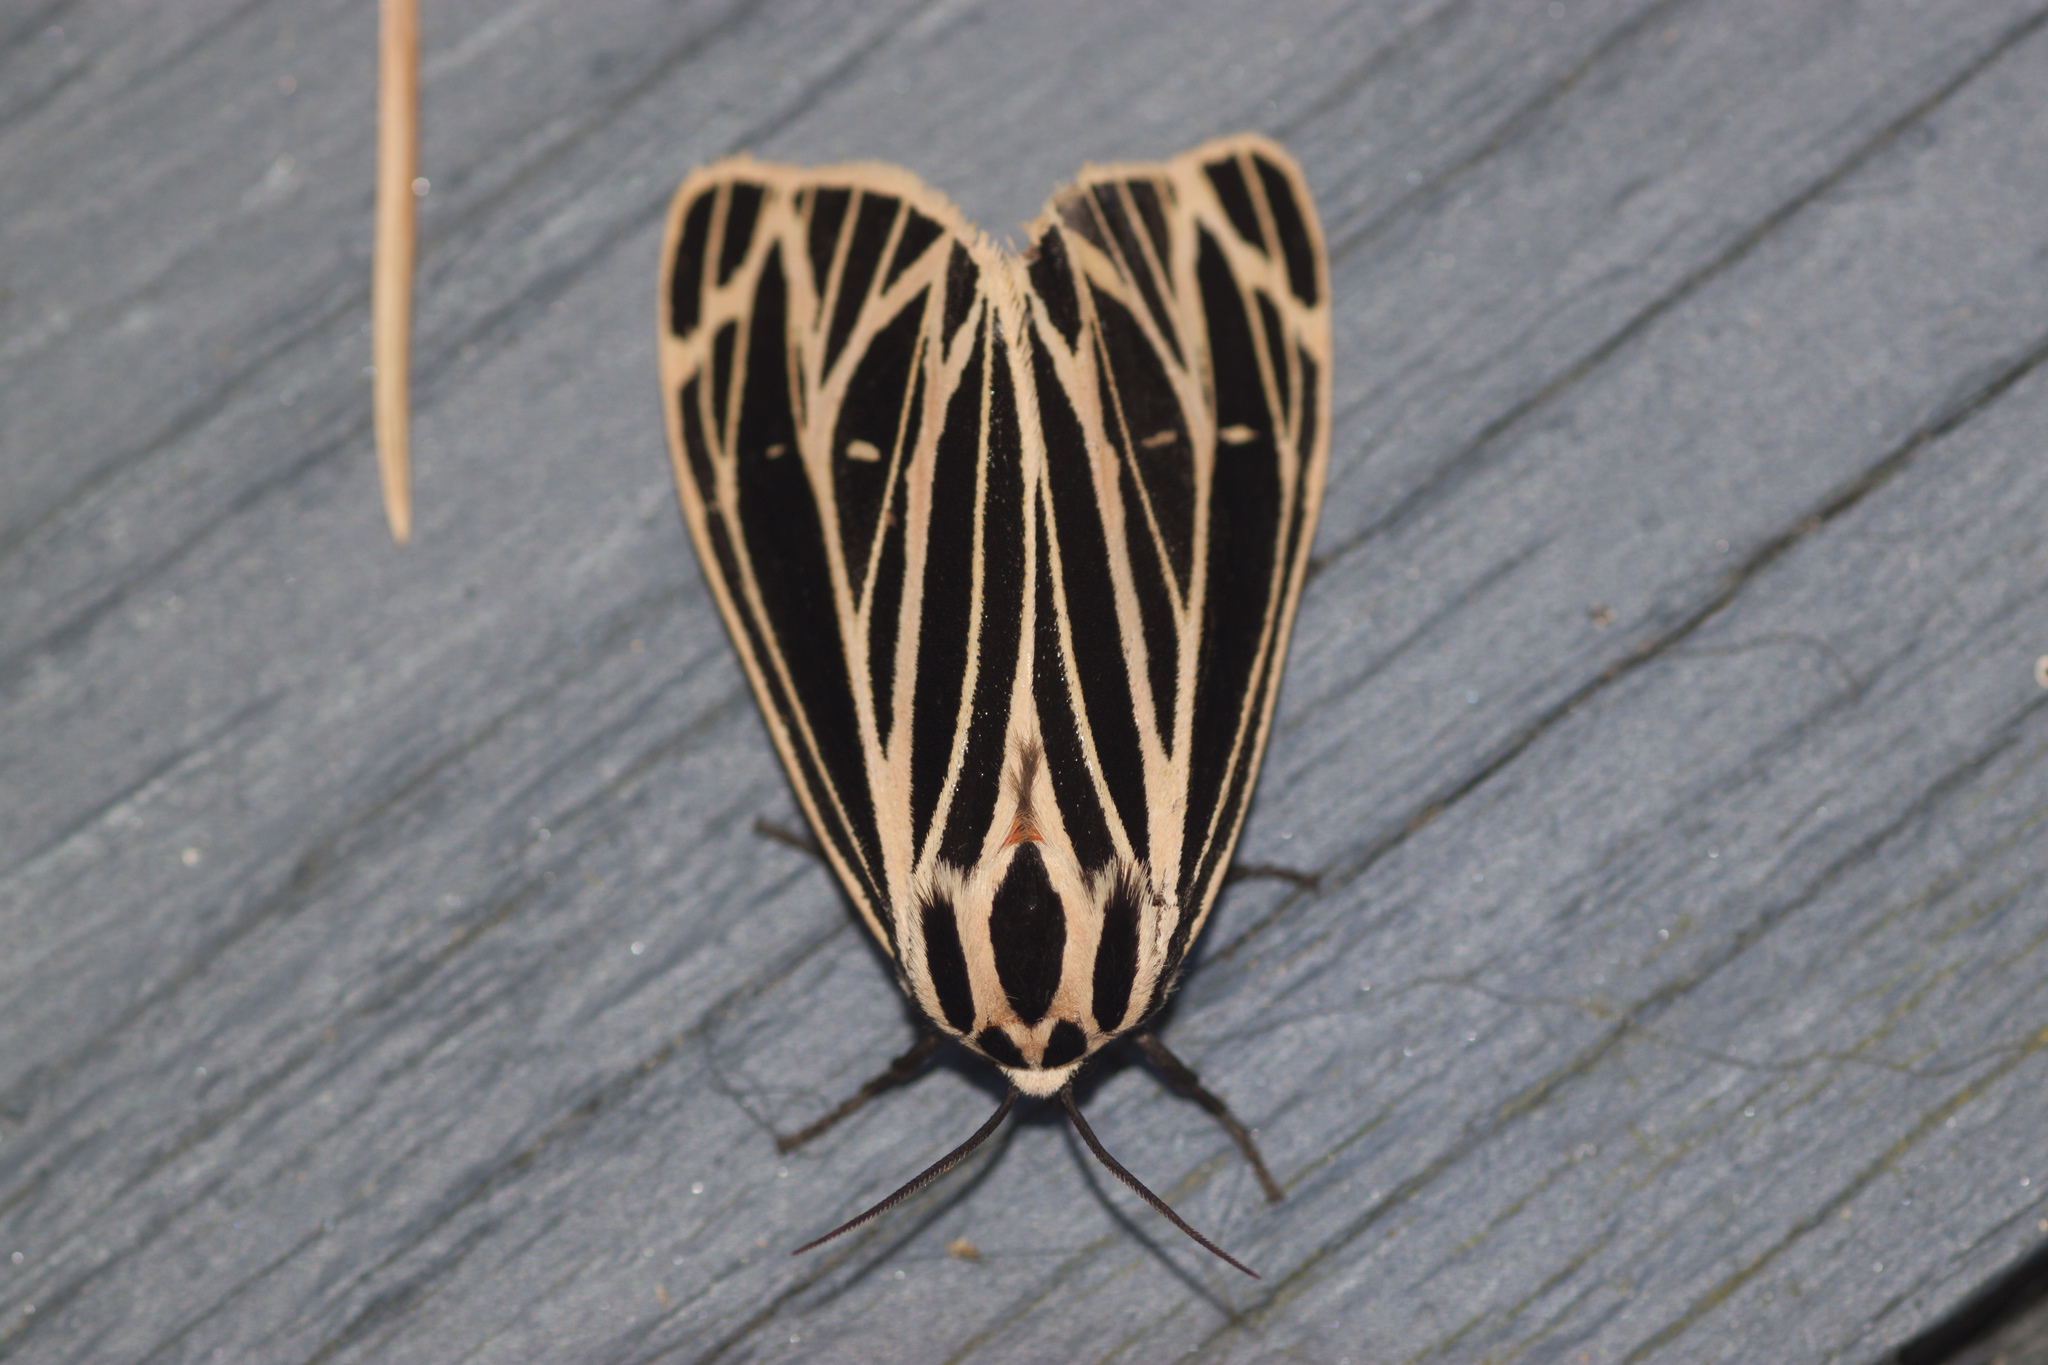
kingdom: Animalia
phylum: Arthropoda
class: Insecta
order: Lepidoptera
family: Erebidae
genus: Grammia
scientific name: Grammia virgo
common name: Virgin tiger moth
